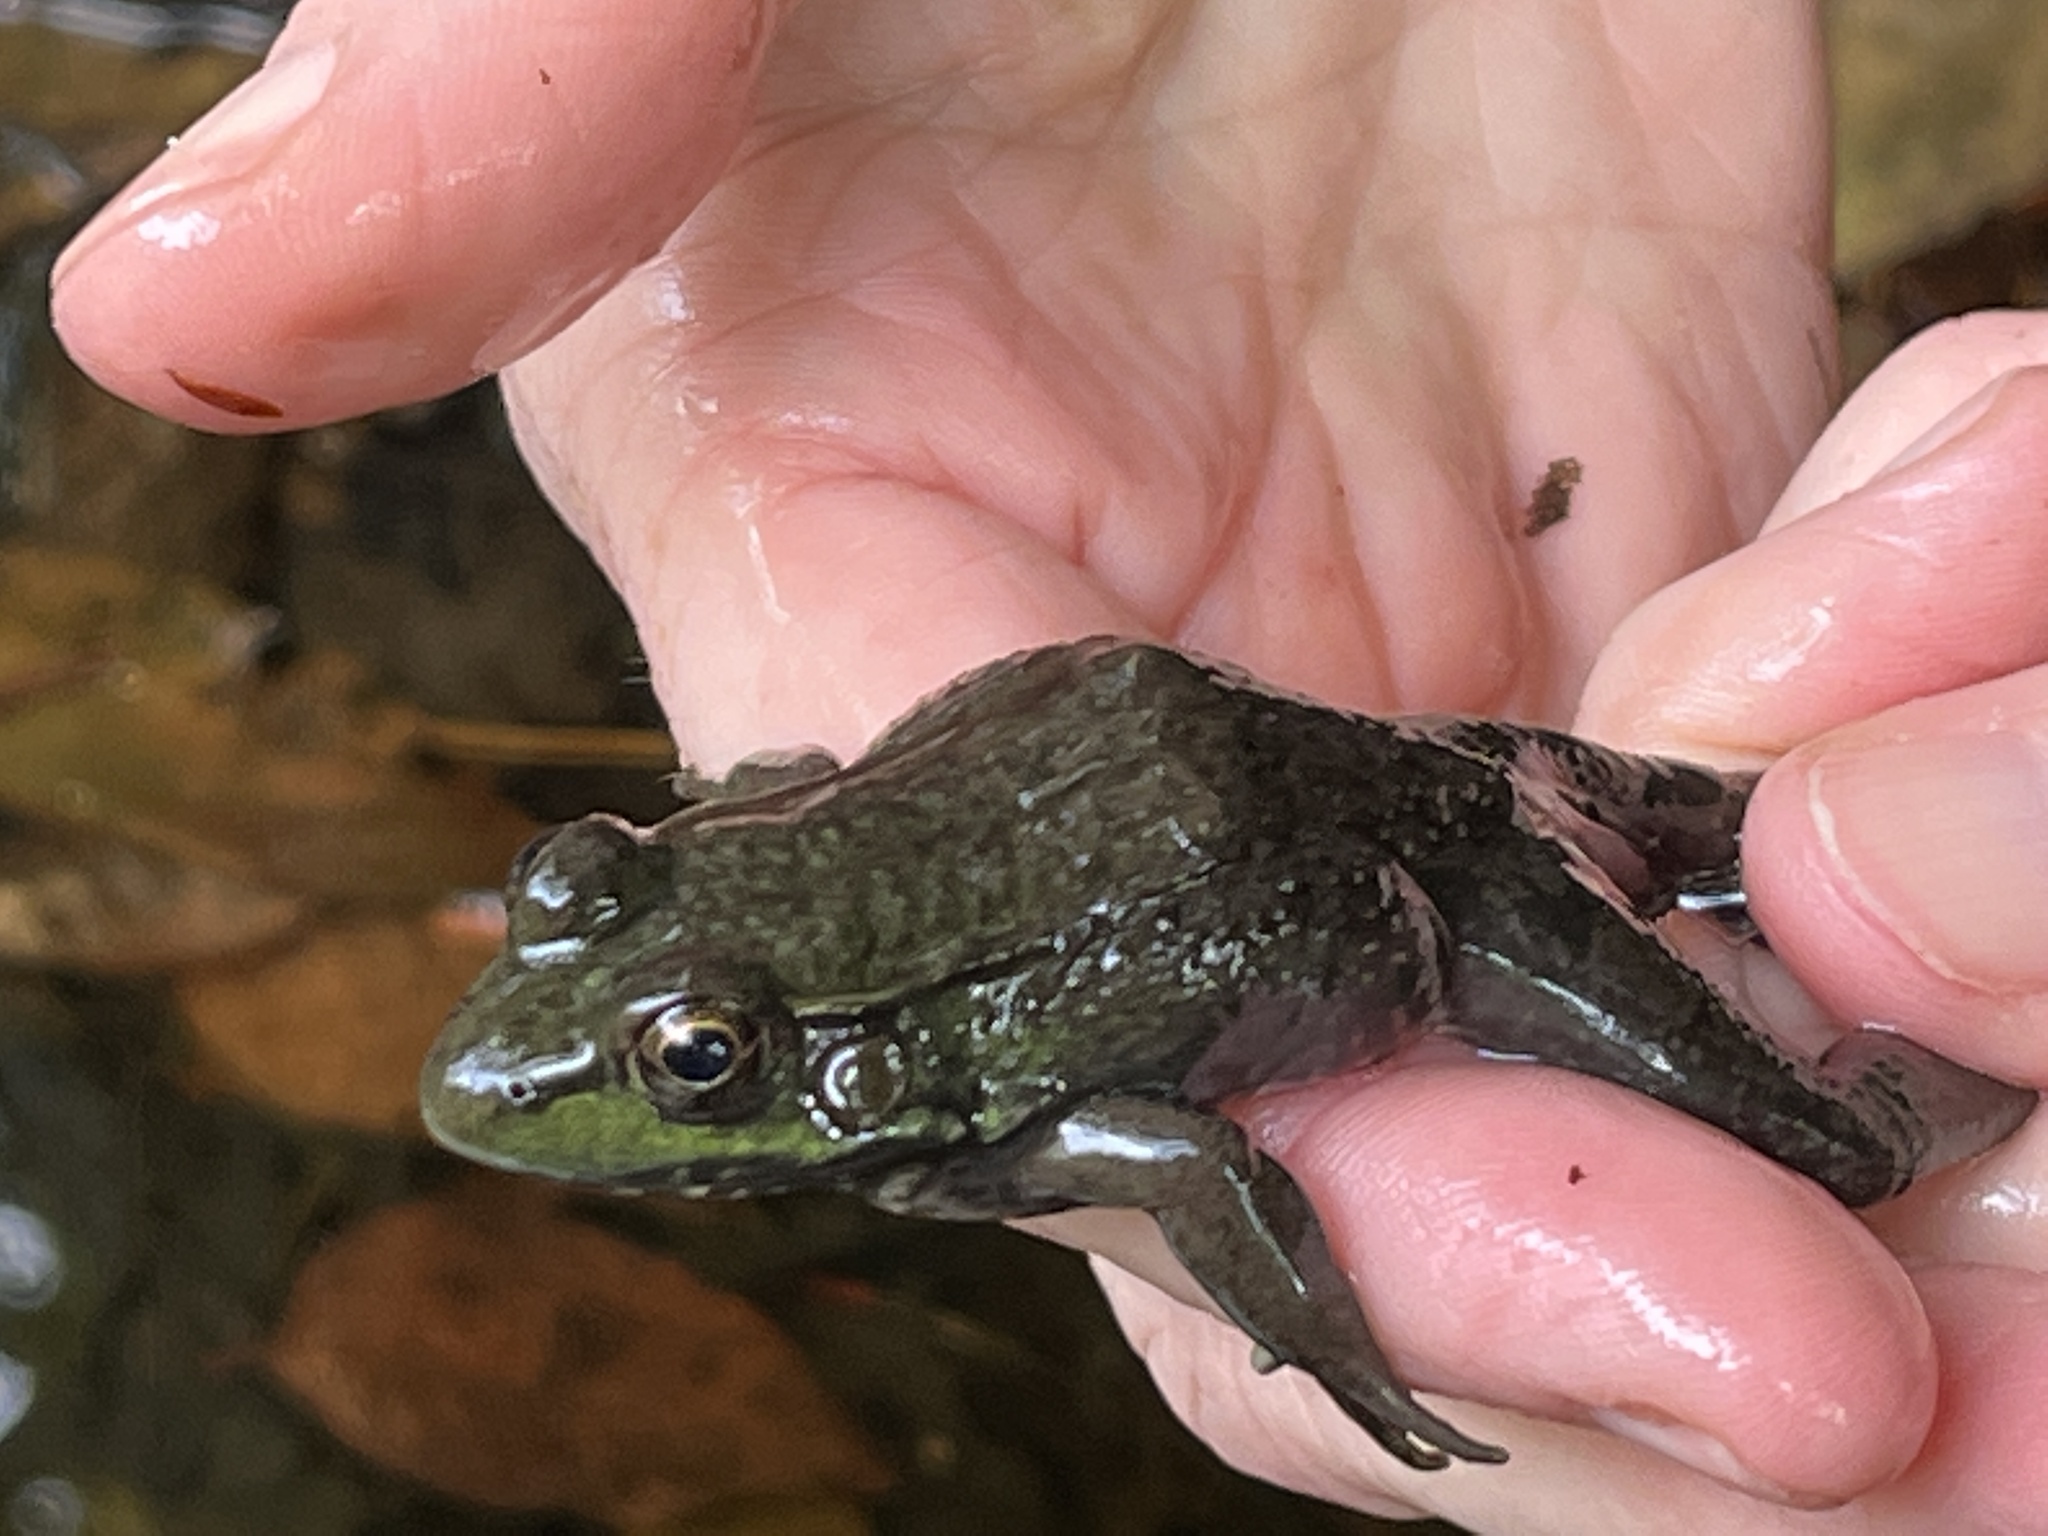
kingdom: Animalia
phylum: Chordata
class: Amphibia
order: Anura
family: Ranidae
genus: Lithobates
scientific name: Lithobates clamitans
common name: Green frog
